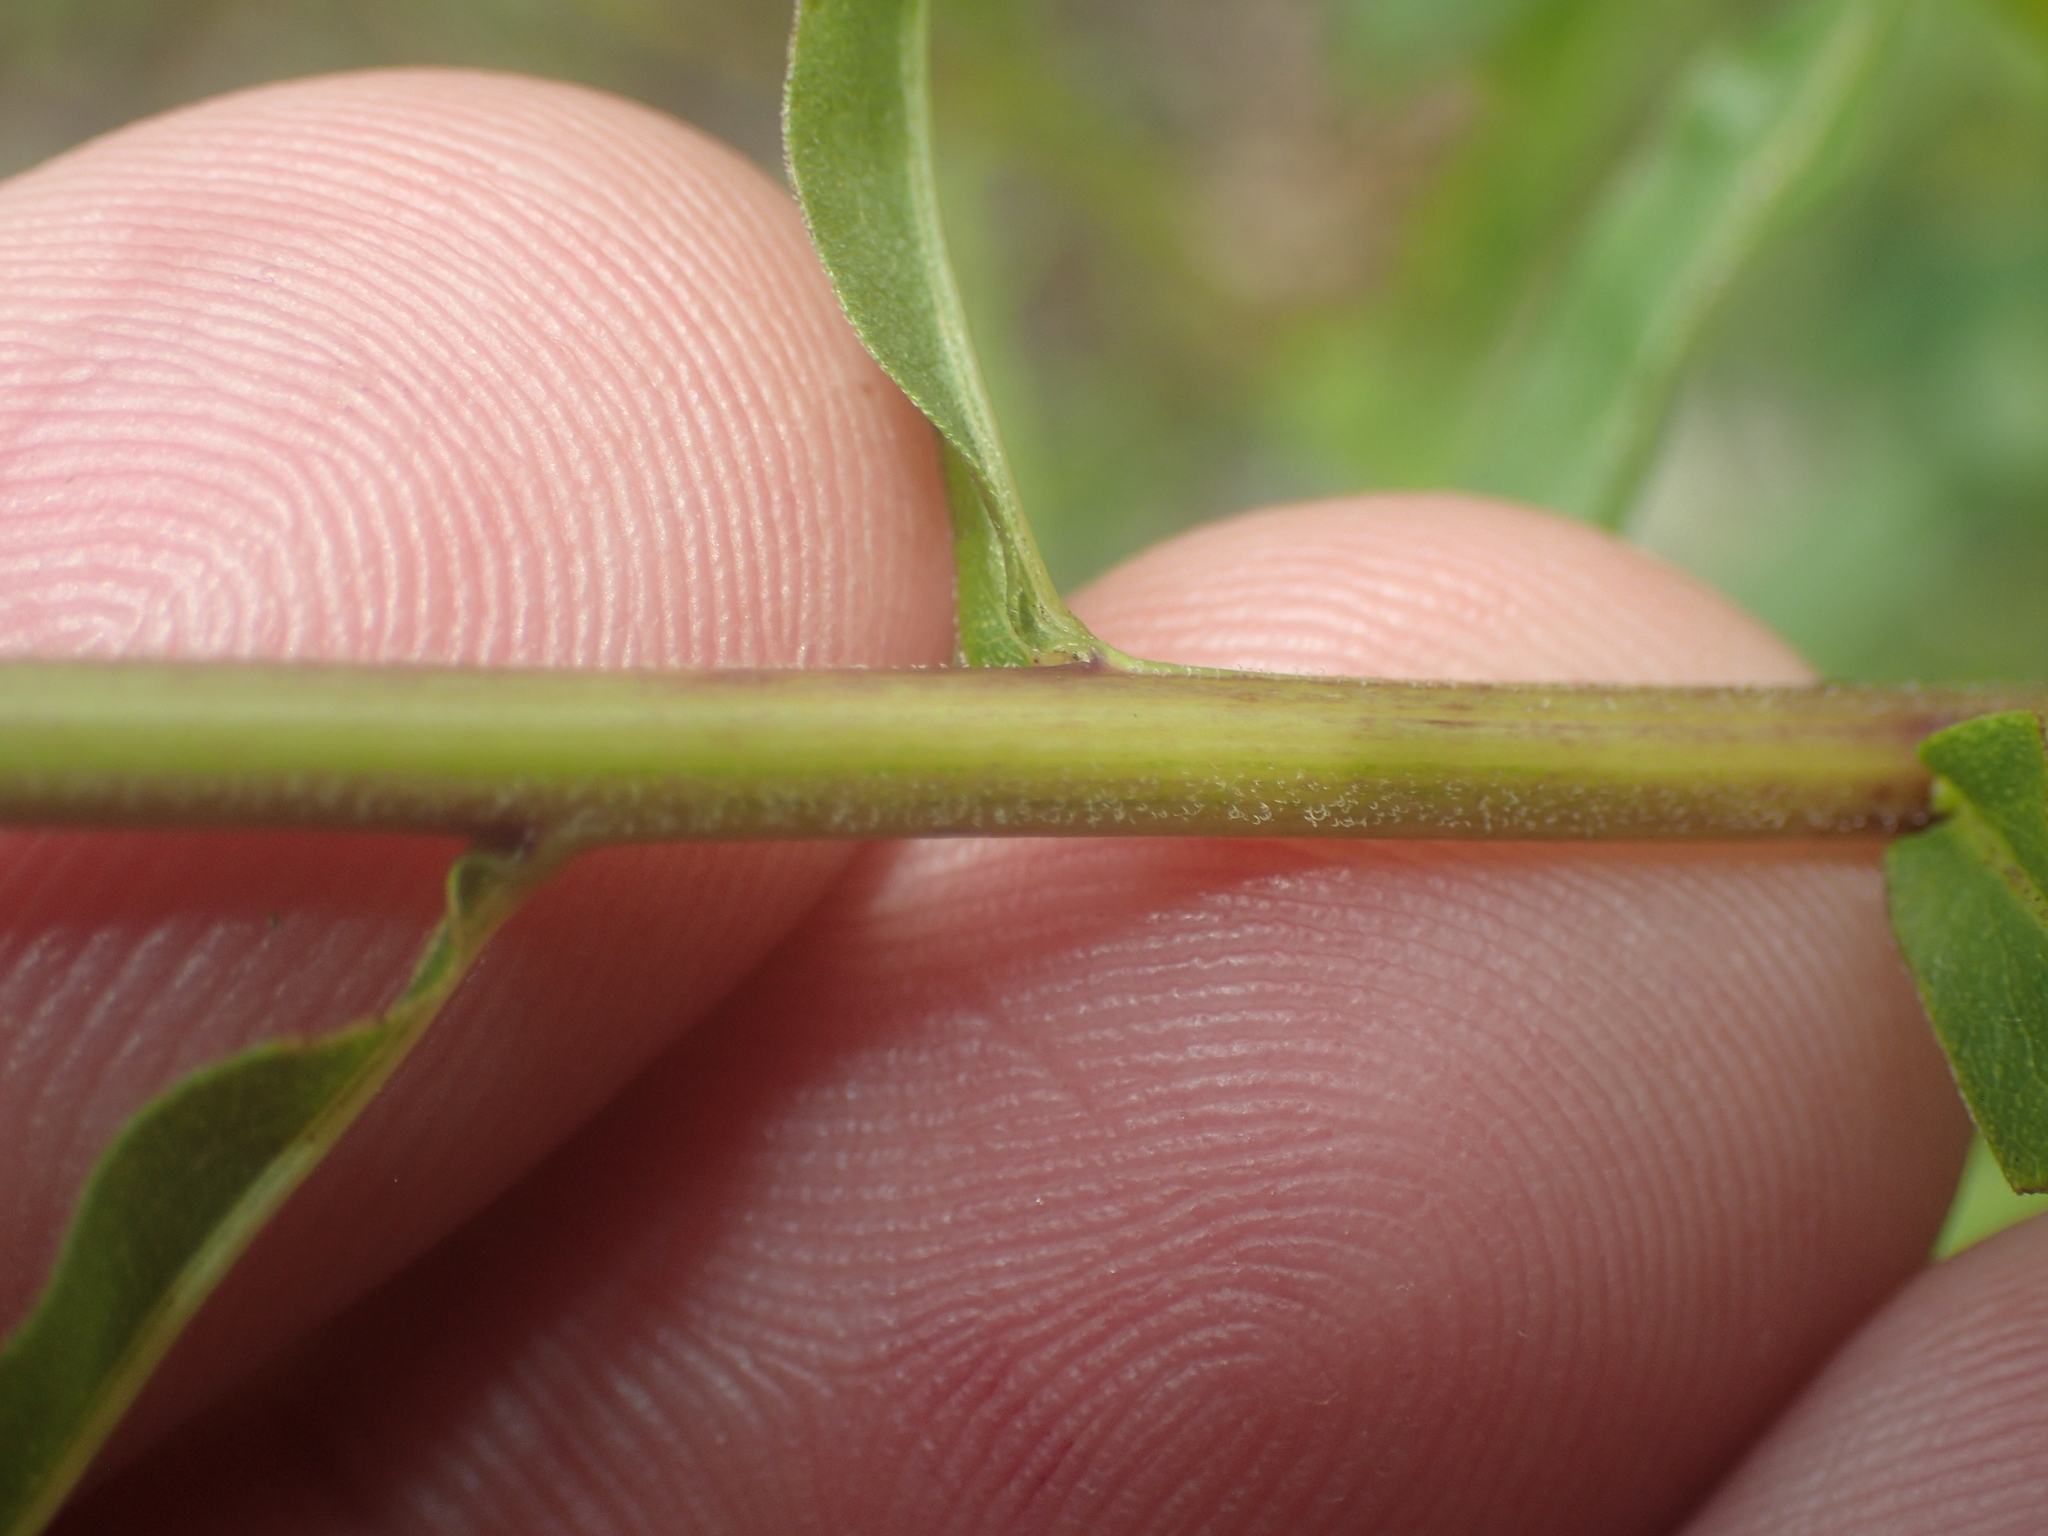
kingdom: Plantae
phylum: Tracheophyta
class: Magnoliopsida
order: Asterales
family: Asteraceae
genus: Solidago
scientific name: Solidago odora
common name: Anise-scented goldenrod
